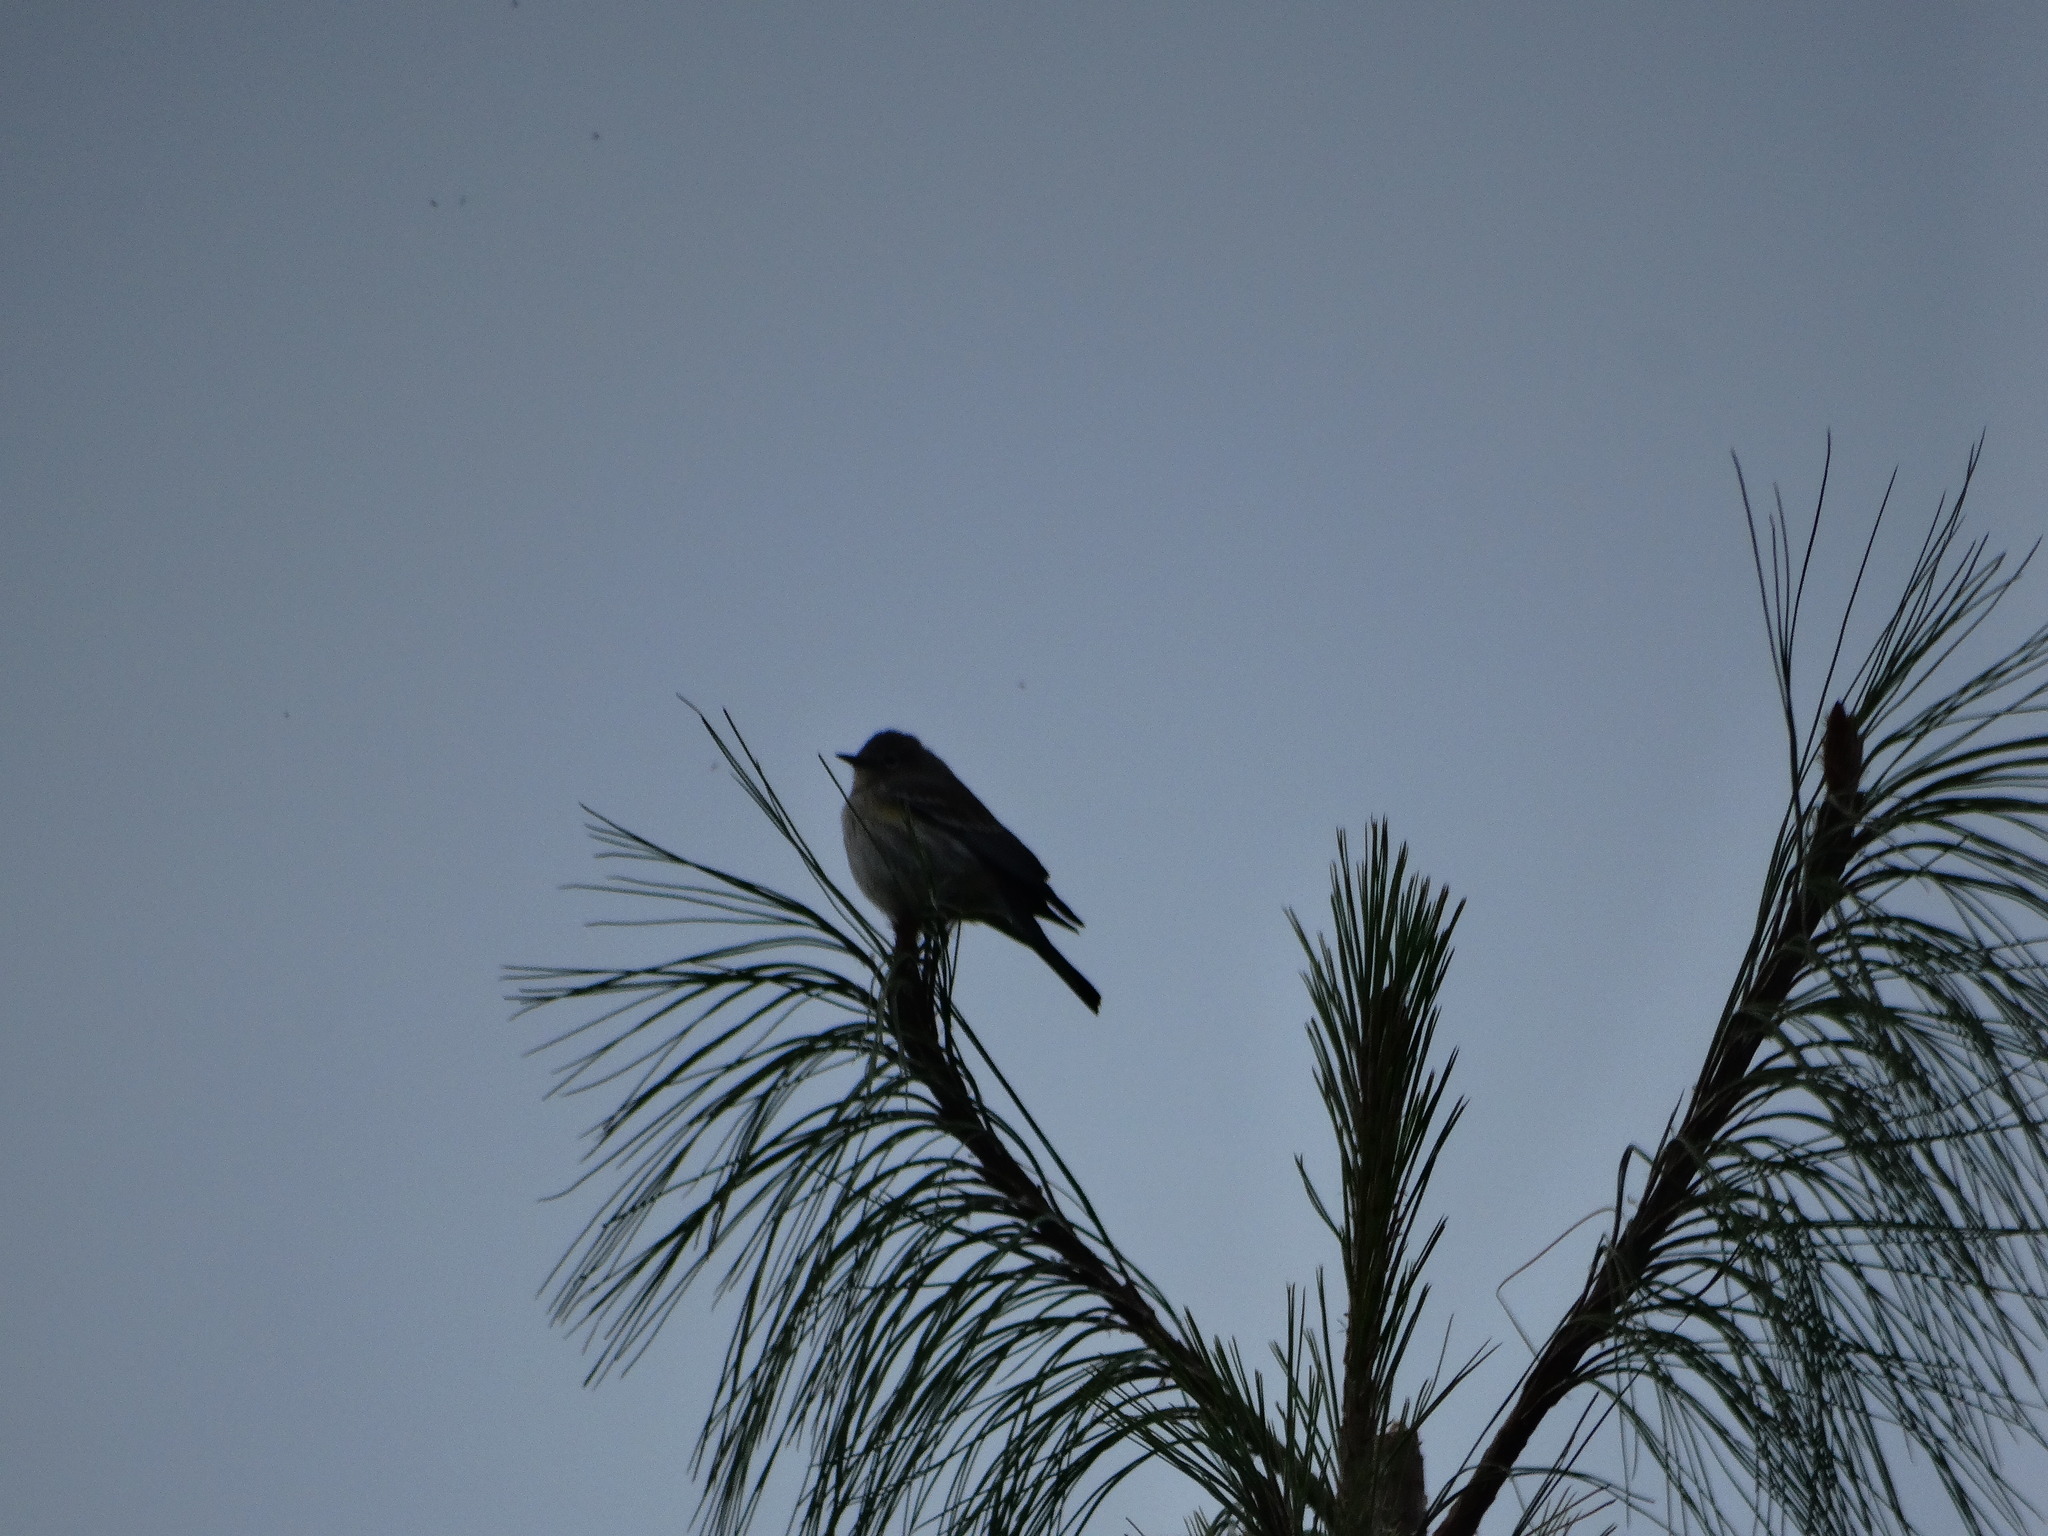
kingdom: Animalia
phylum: Chordata
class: Aves
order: Passeriformes
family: Parulidae
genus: Setophaga
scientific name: Setophaga coronata
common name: Myrtle warbler
